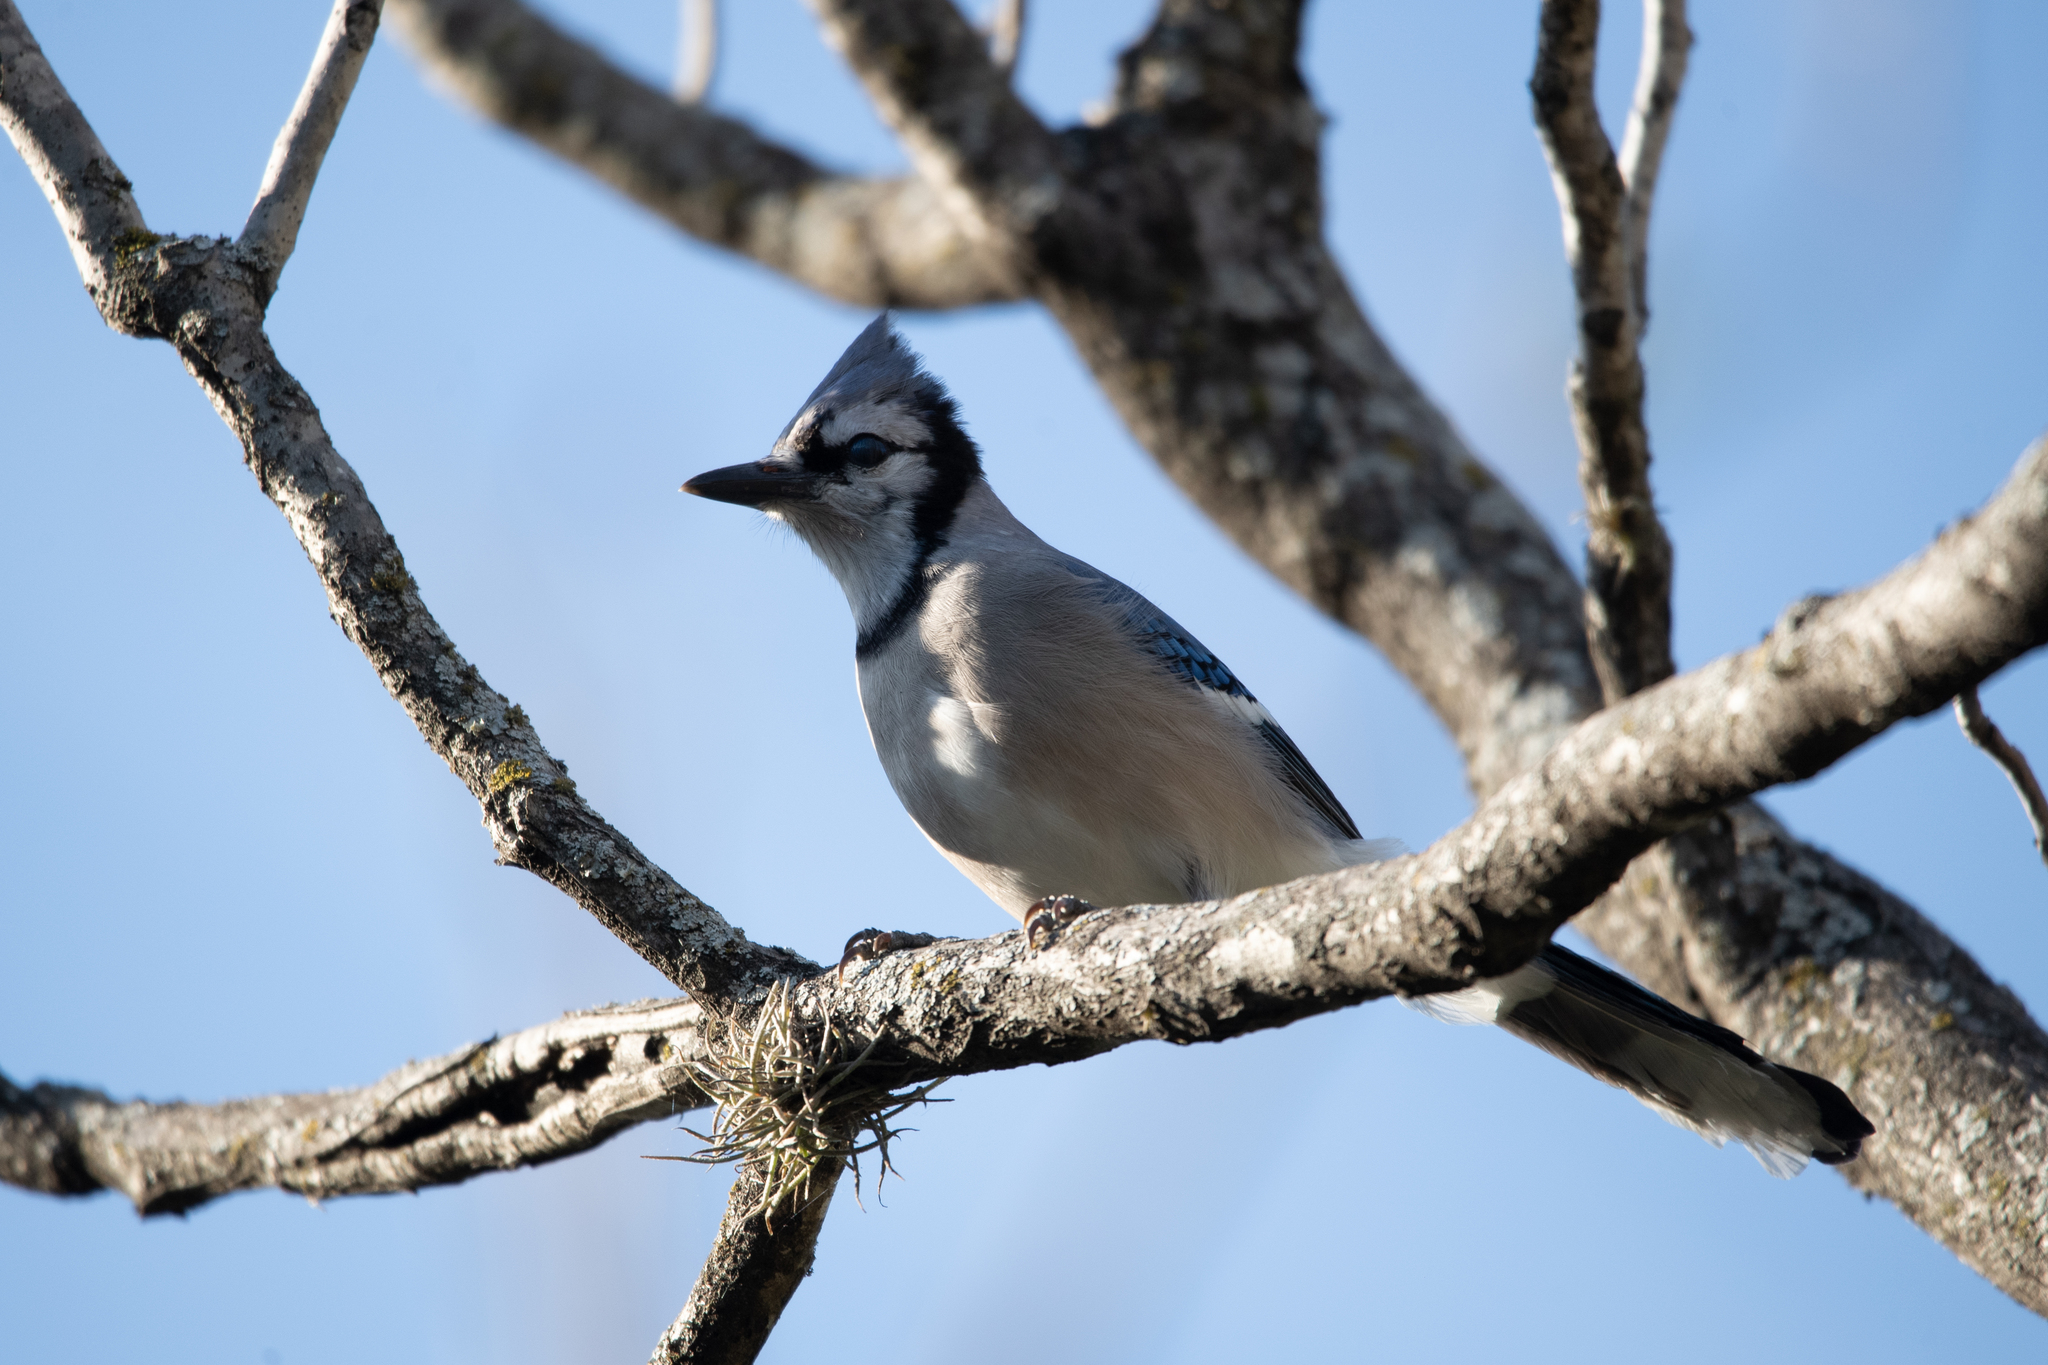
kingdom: Animalia
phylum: Chordata
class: Aves
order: Passeriformes
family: Corvidae
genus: Cyanocitta
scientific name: Cyanocitta cristata
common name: Blue jay
